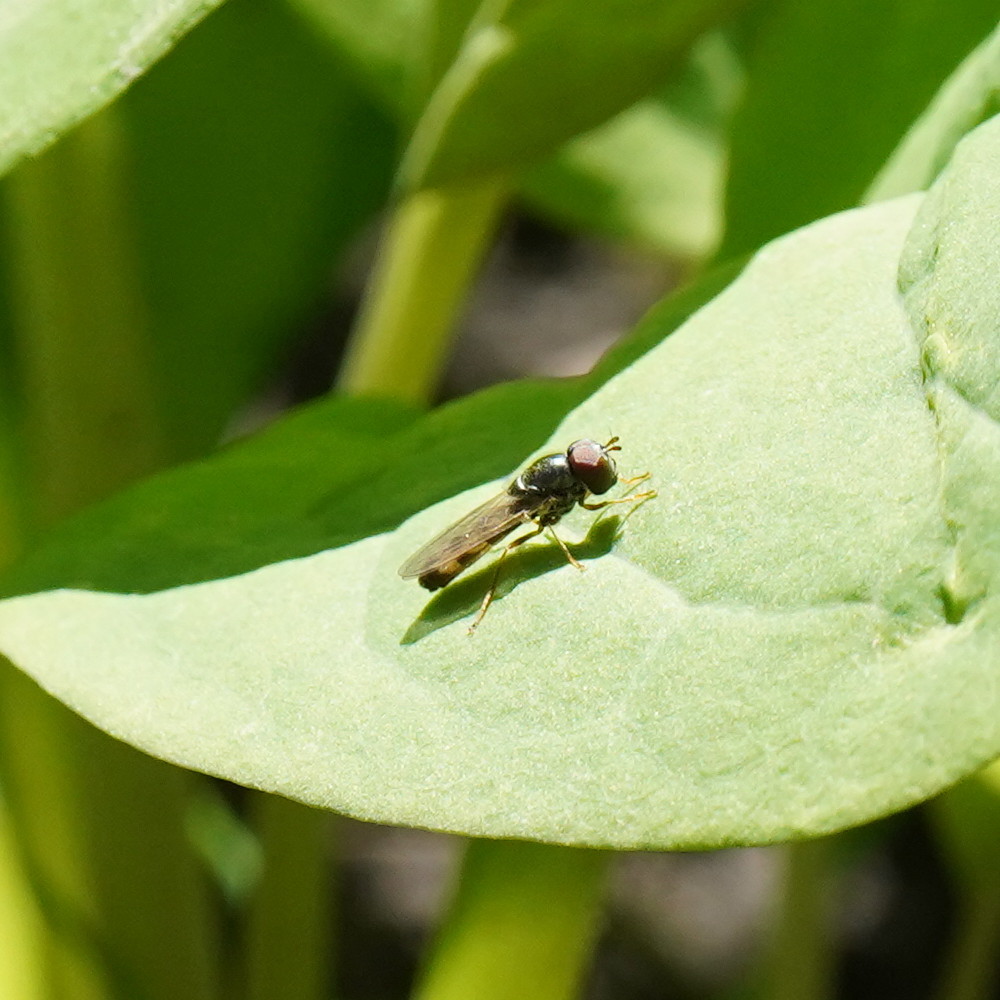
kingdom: Animalia
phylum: Arthropoda
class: Insecta
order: Diptera
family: Syrphidae
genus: Melanostoma
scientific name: Melanostoma mellina
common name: Hover fly
